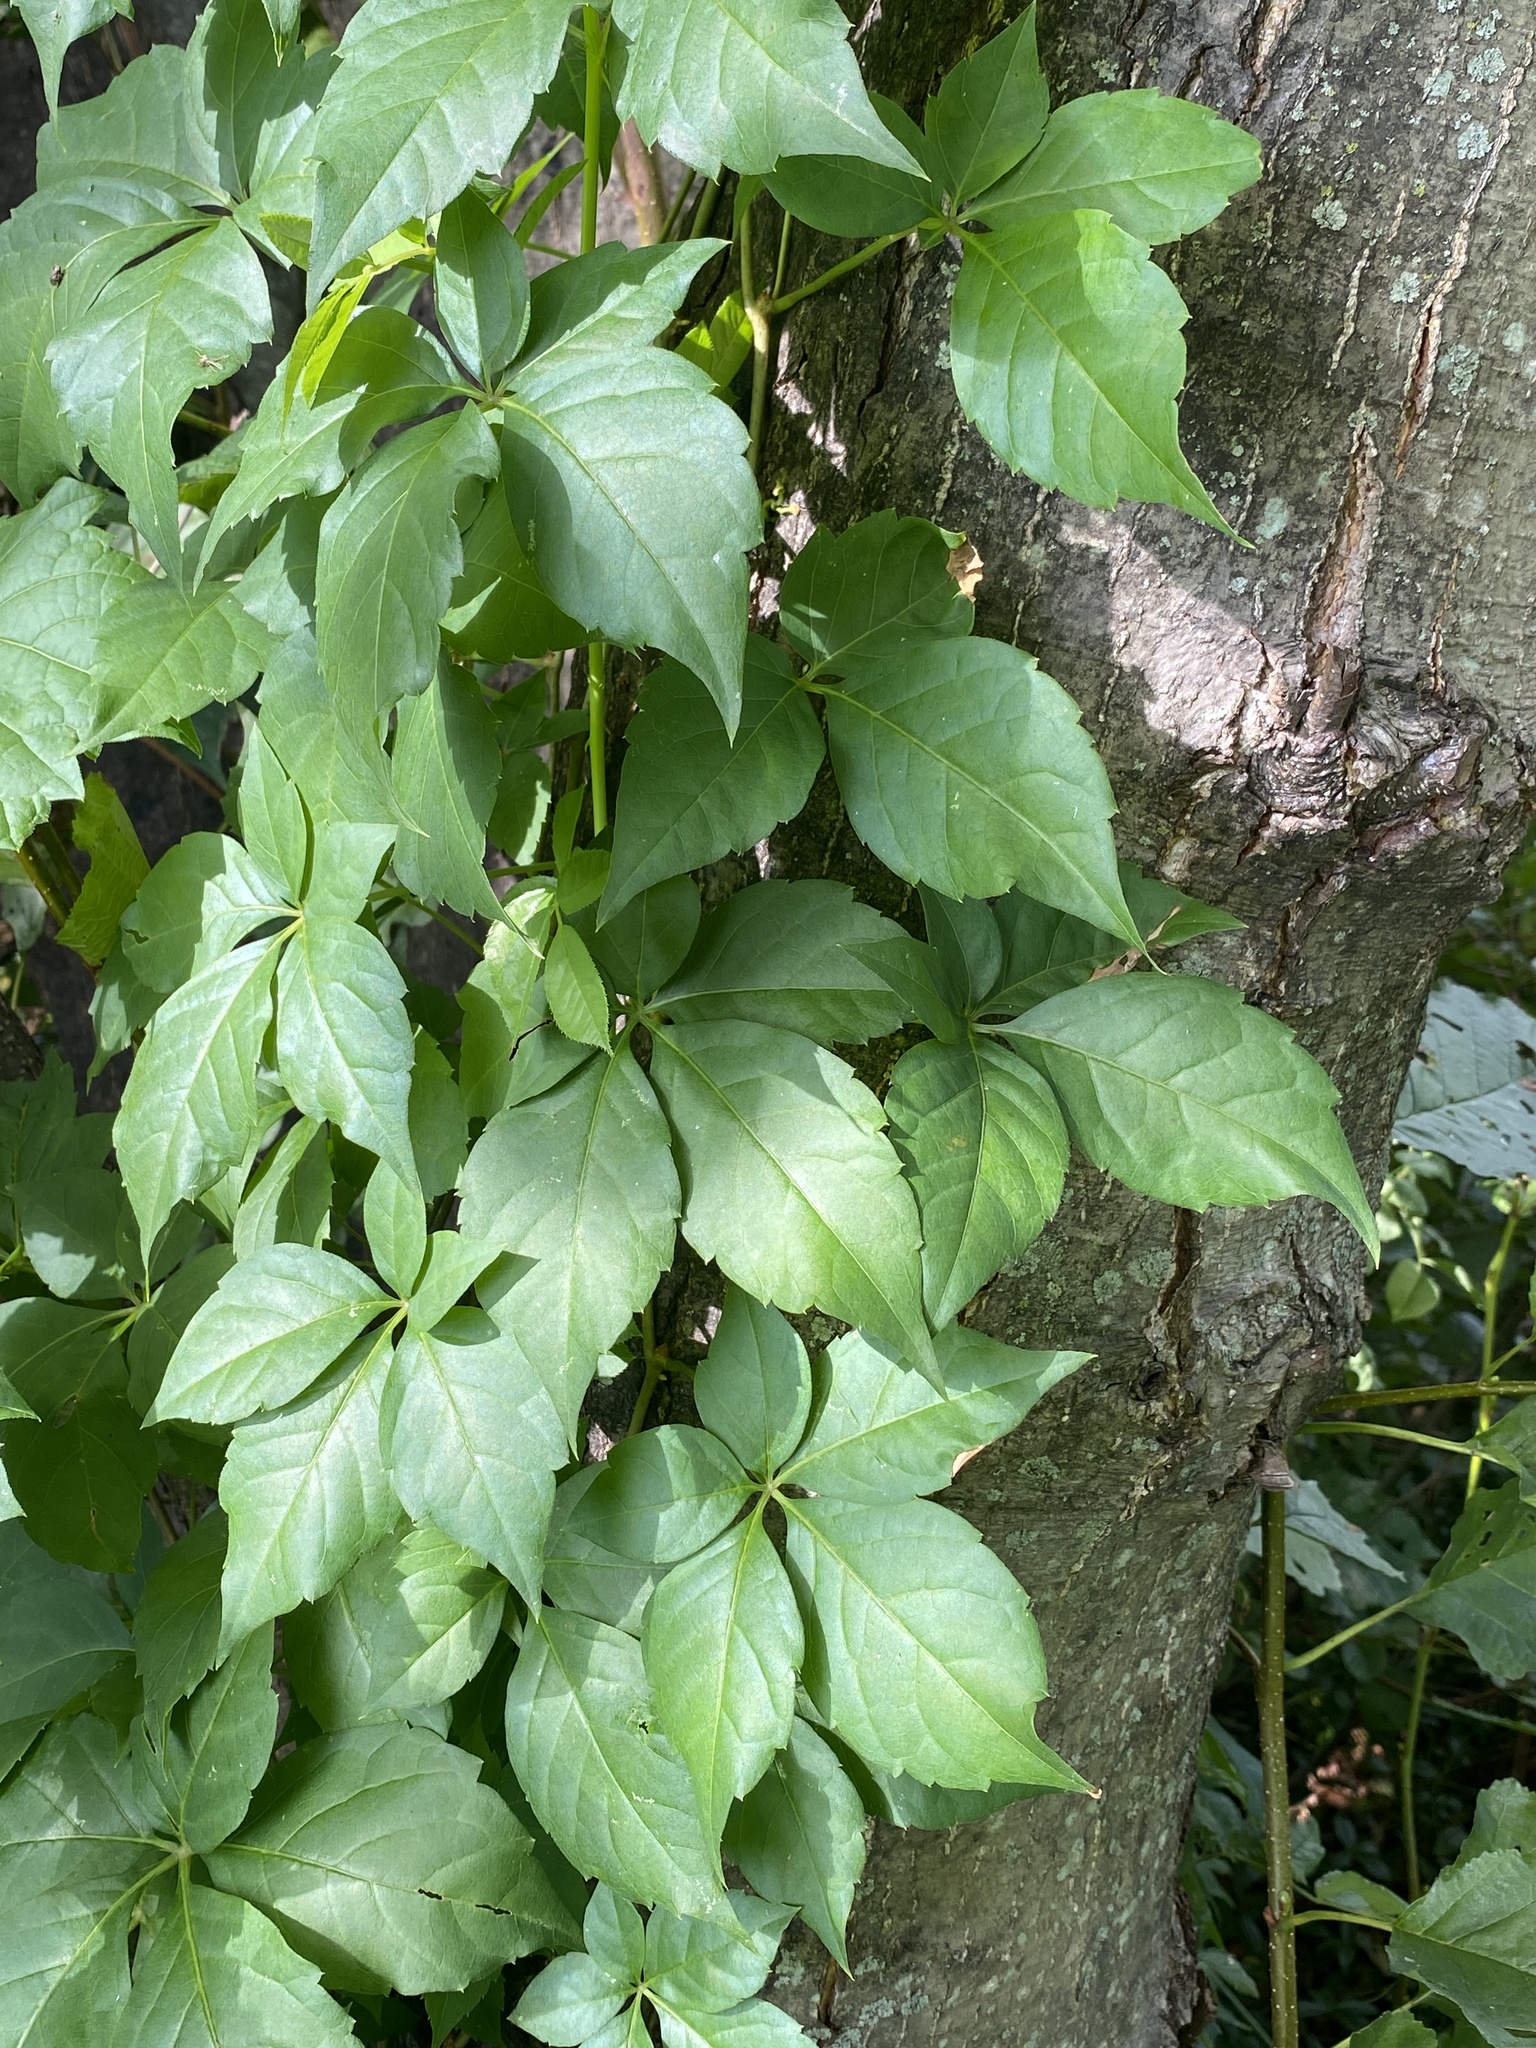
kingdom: Plantae
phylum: Tracheophyta
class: Magnoliopsida
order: Vitales
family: Vitaceae
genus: Parthenocissus
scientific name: Parthenocissus quinquefolia
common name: Virginia-creeper
